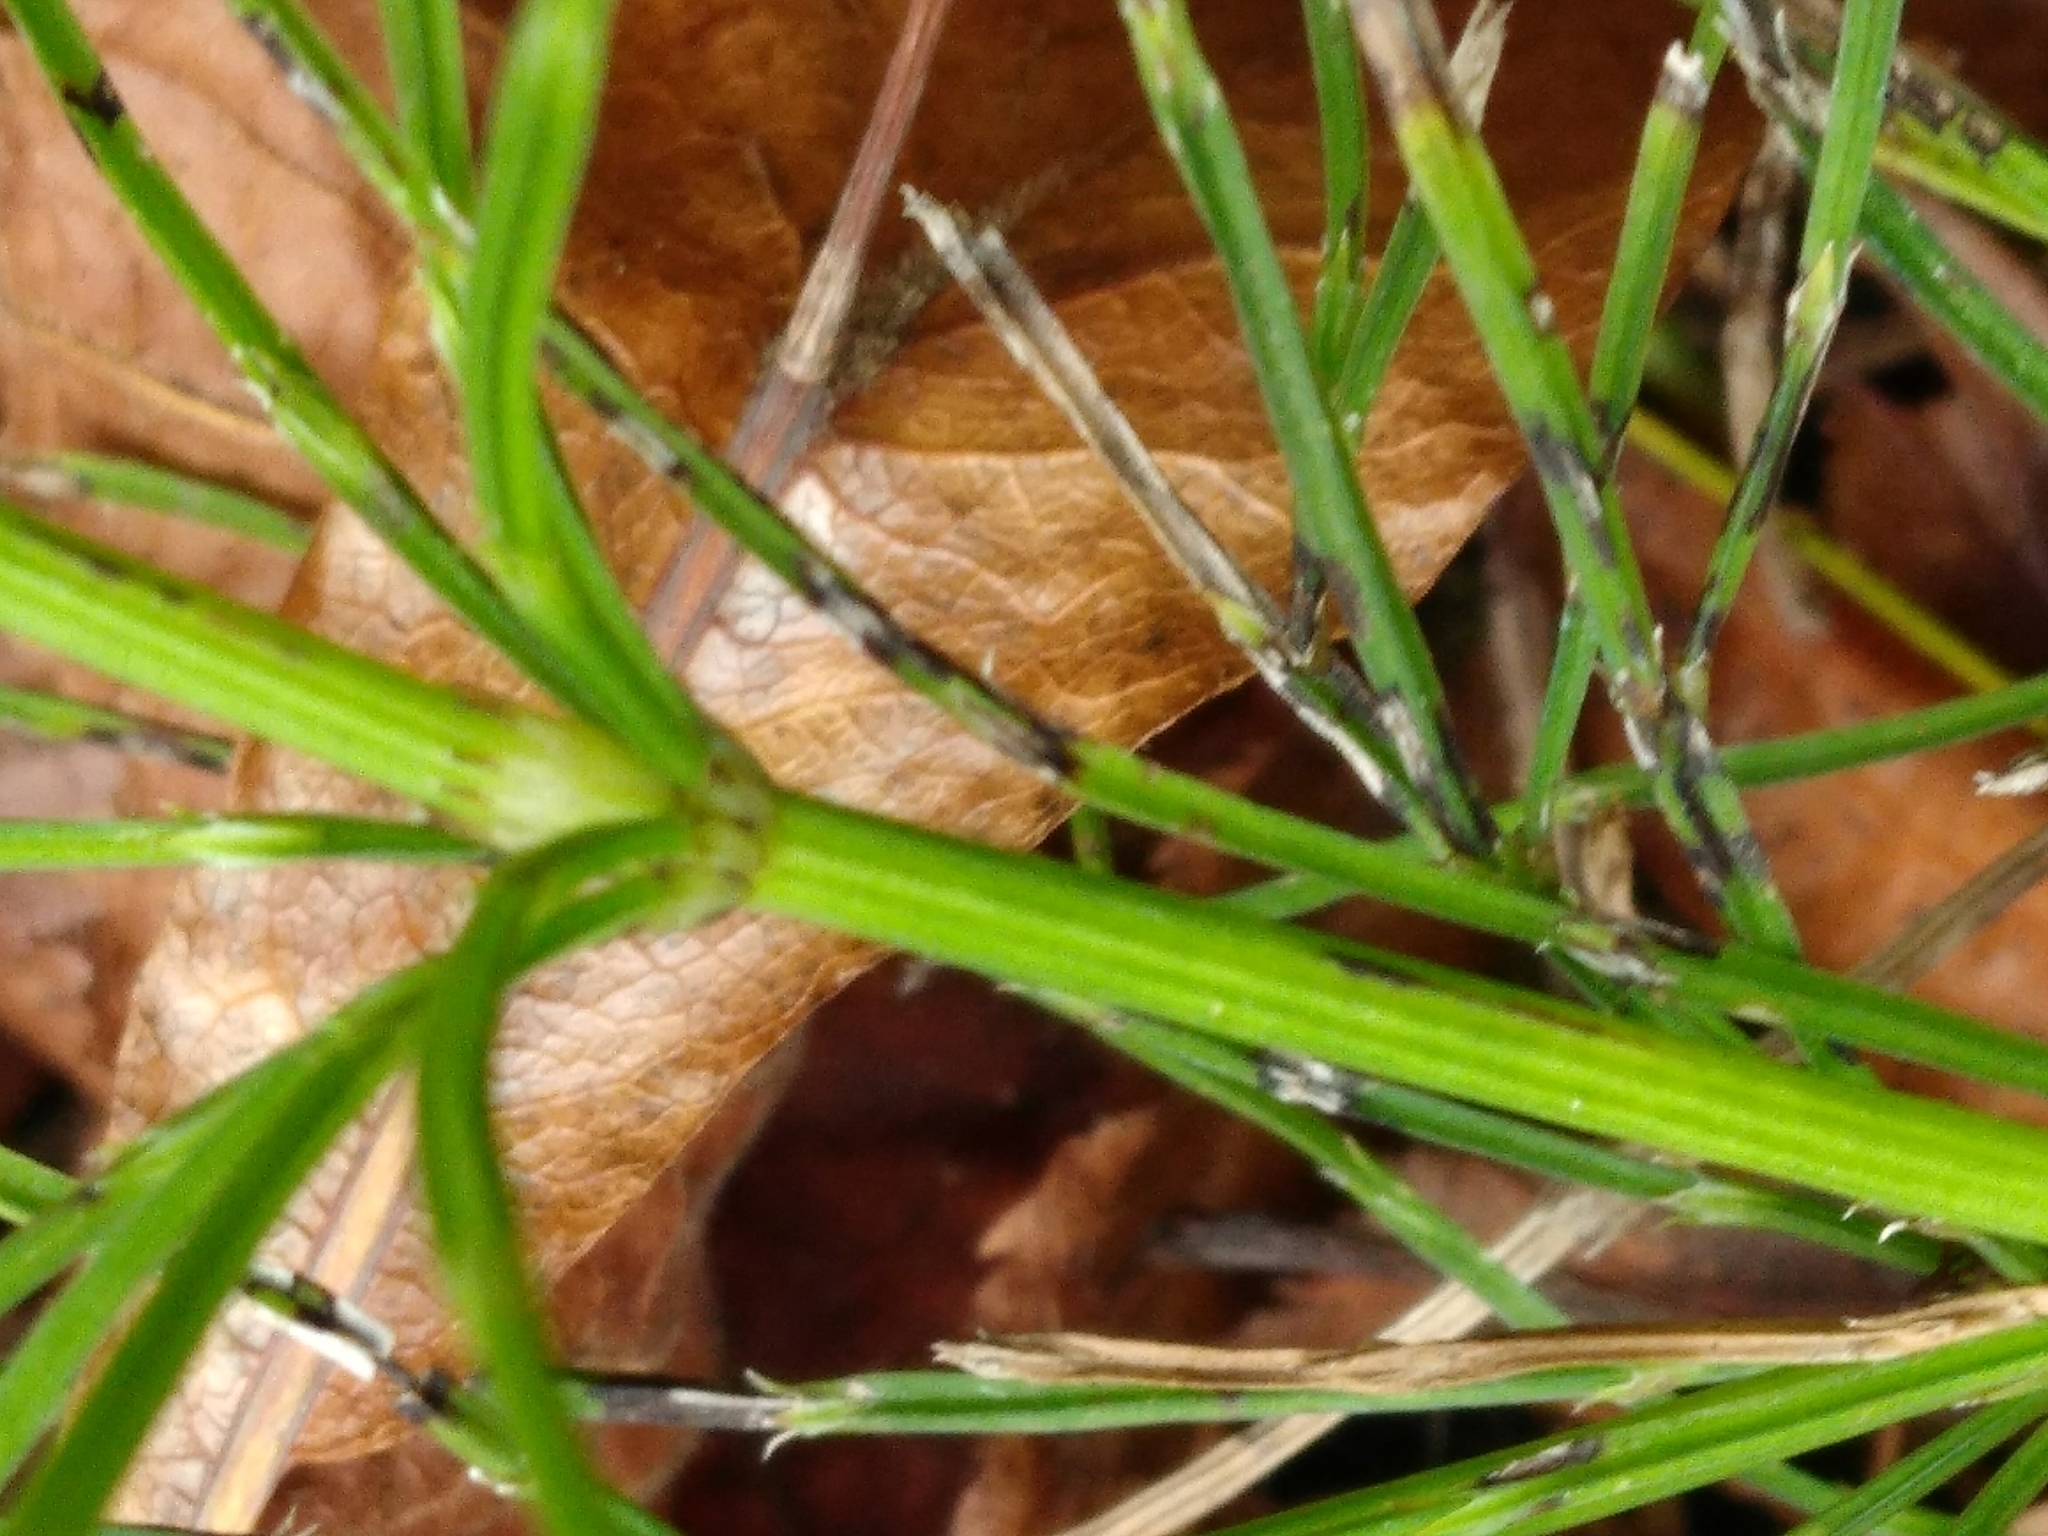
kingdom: Plantae
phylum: Tracheophyta
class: Polypodiopsida
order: Equisetales
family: Equisetaceae
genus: Equisetum
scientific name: Equisetum arvense
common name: Field horsetail
